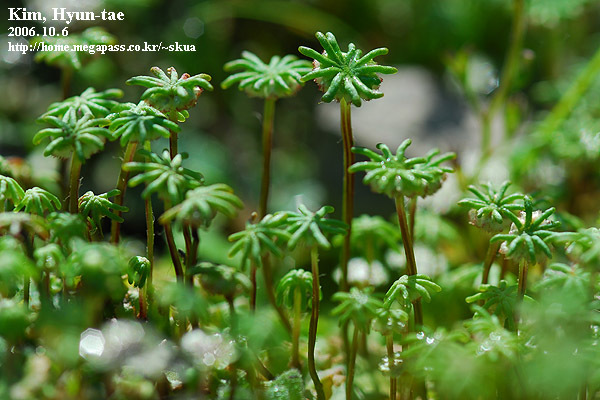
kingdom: Plantae
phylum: Marchantiophyta
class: Marchantiopsida
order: Marchantiales
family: Marchantiaceae
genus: Marchantia
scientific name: Marchantia polymorpha
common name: Common liverwort
